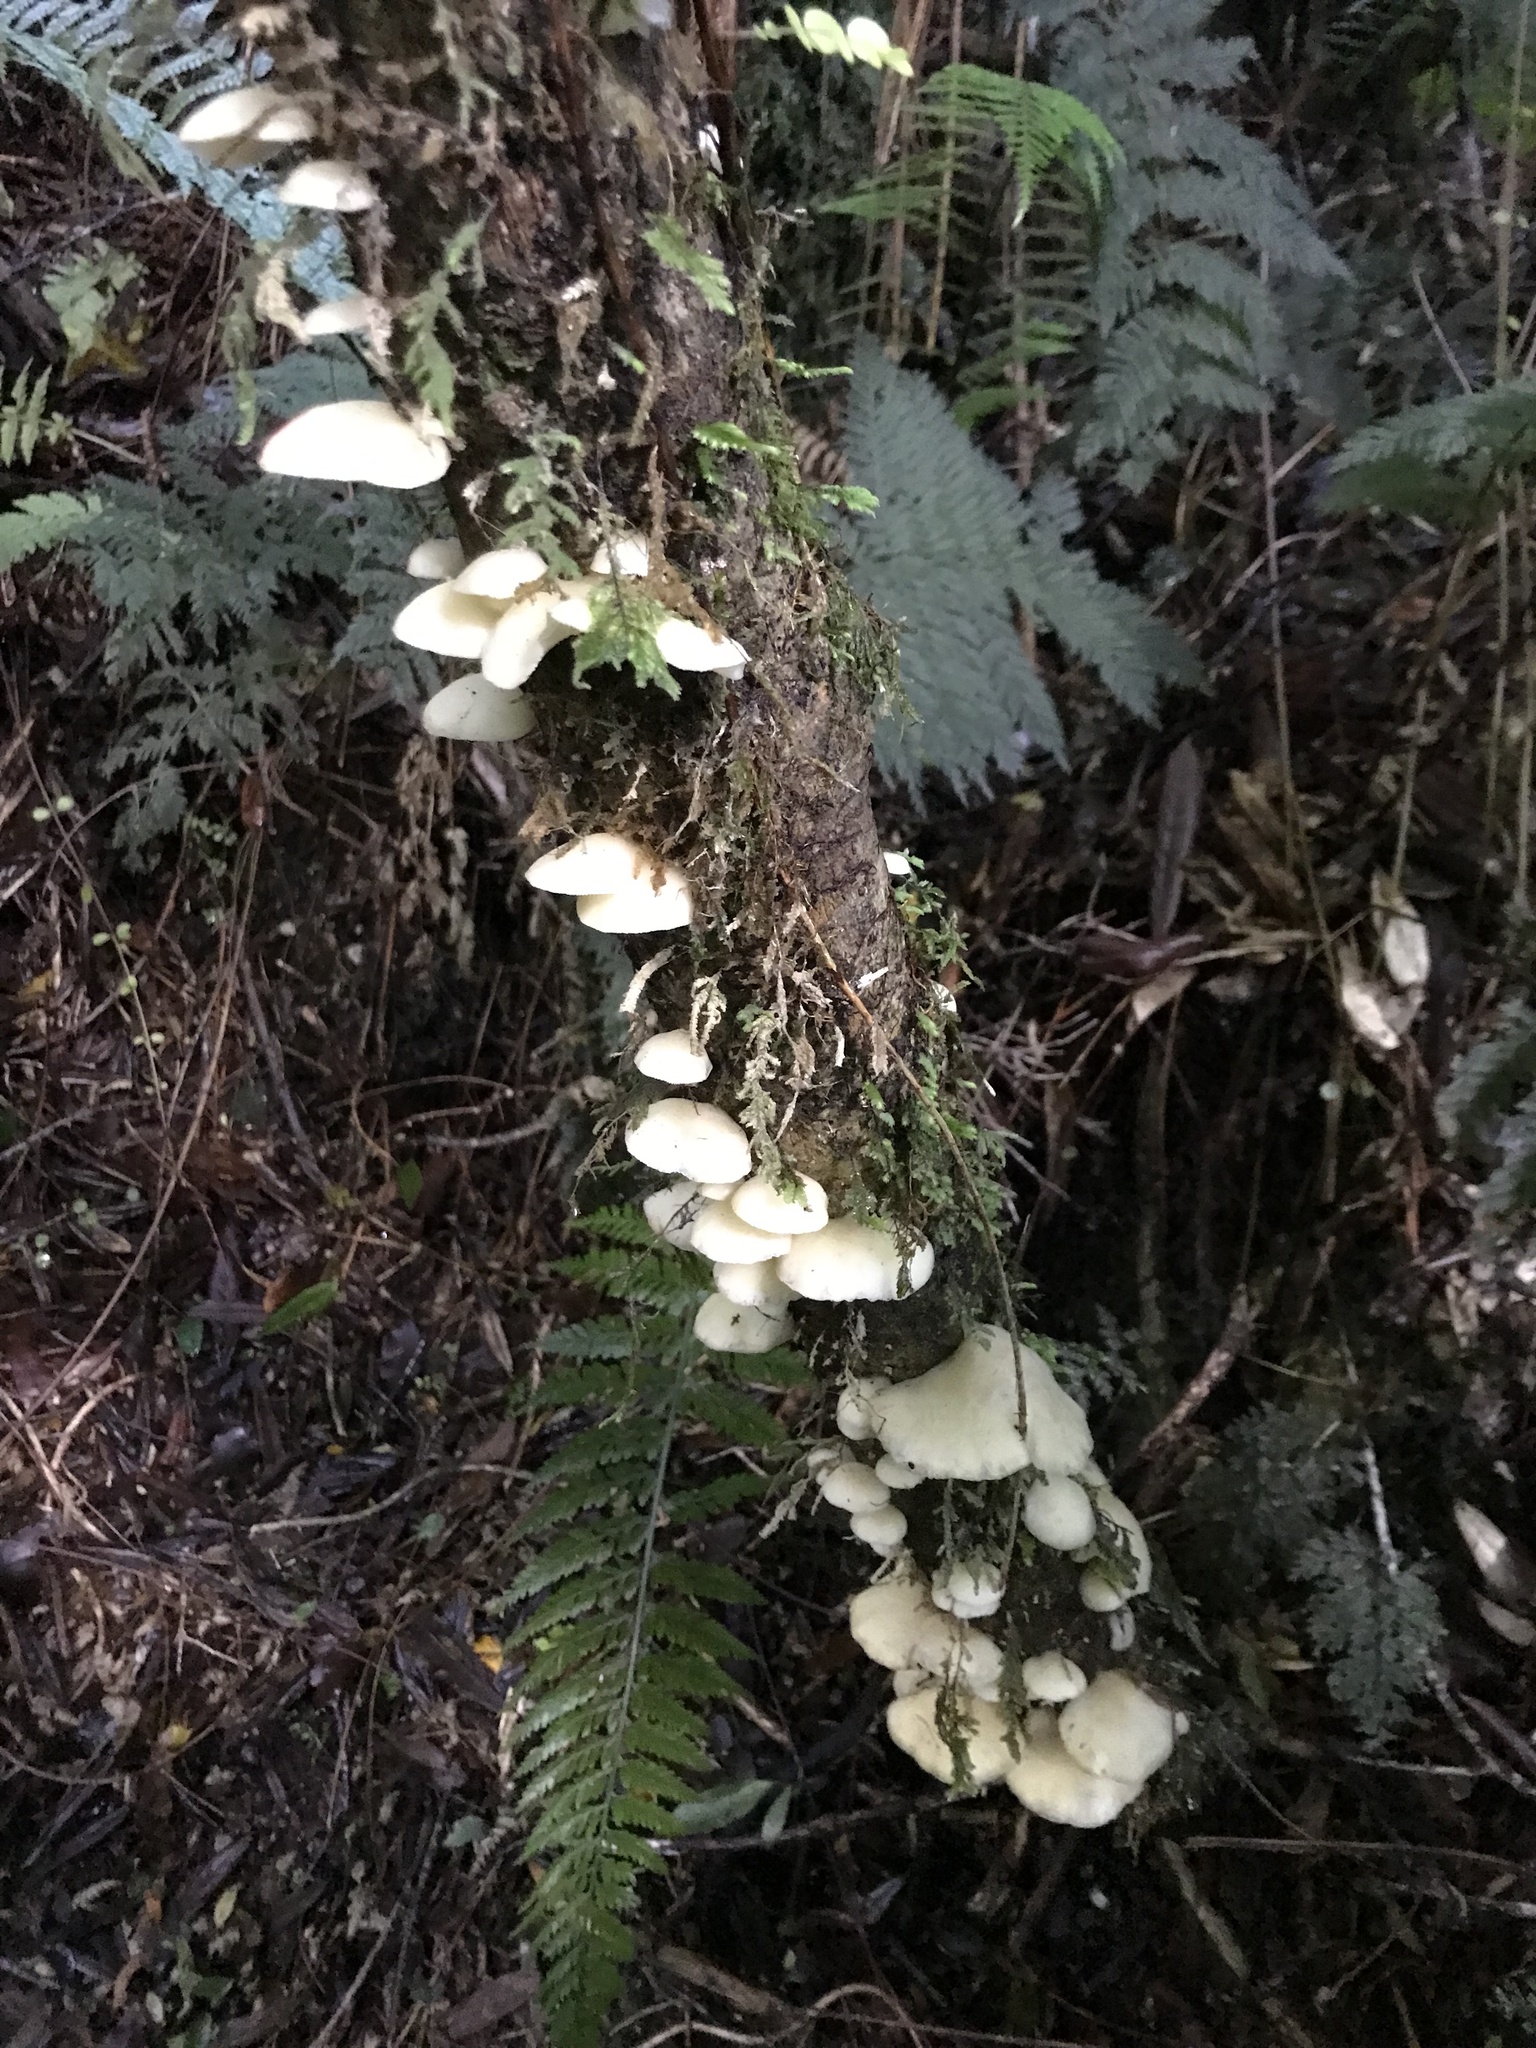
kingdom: Fungi
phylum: Basidiomycota
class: Agaricomycetes
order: Agaricales
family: Tricholomataceae
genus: Conchomyces
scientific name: Conchomyces bursiformis
